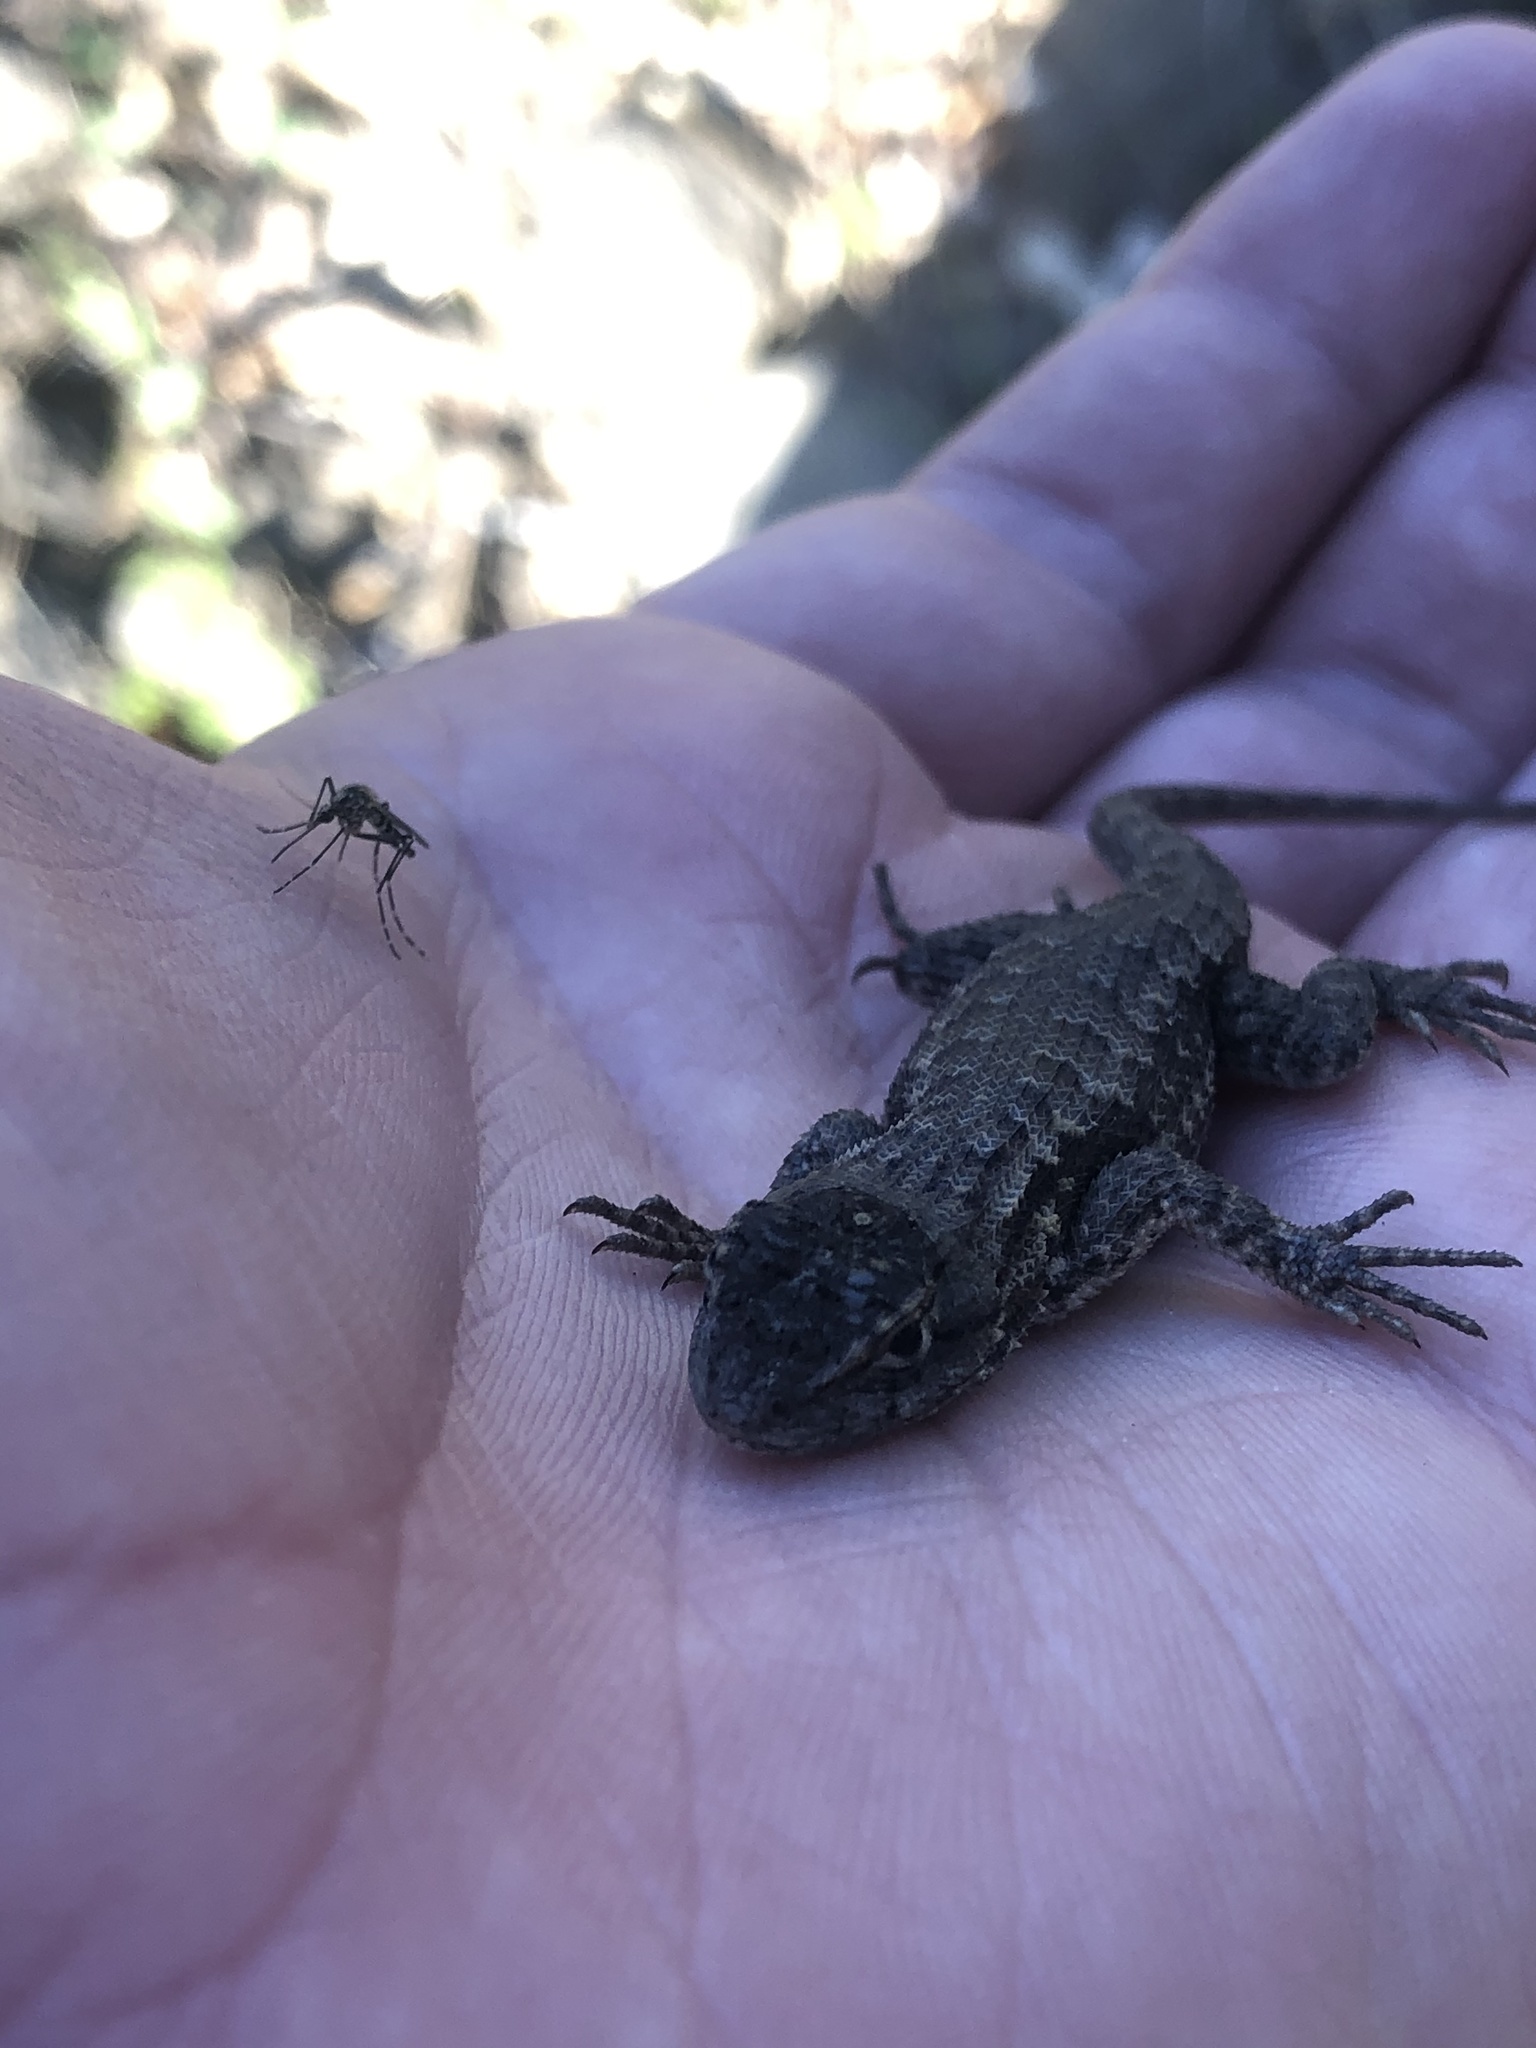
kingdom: Animalia
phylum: Chordata
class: Squamata
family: Phrynosomatidae
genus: Sceloporus
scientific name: Sceloporus occidentalis
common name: Western fence lizard
